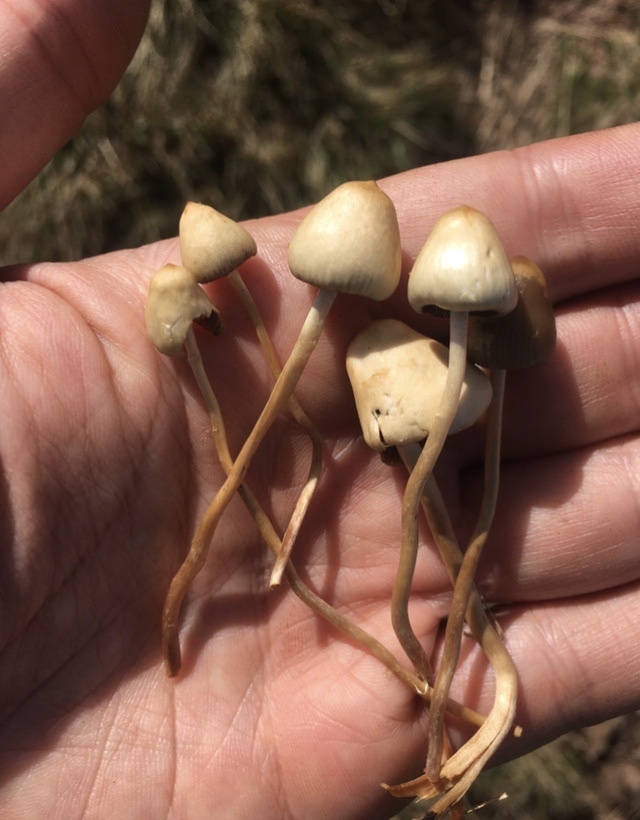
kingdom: Fungi
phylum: Basidiomycota
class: Agaricomycetes
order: Agaricales
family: Hymenogastraceae
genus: Psilocybe
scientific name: Psilocybe semilanceata
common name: Liberty cap
